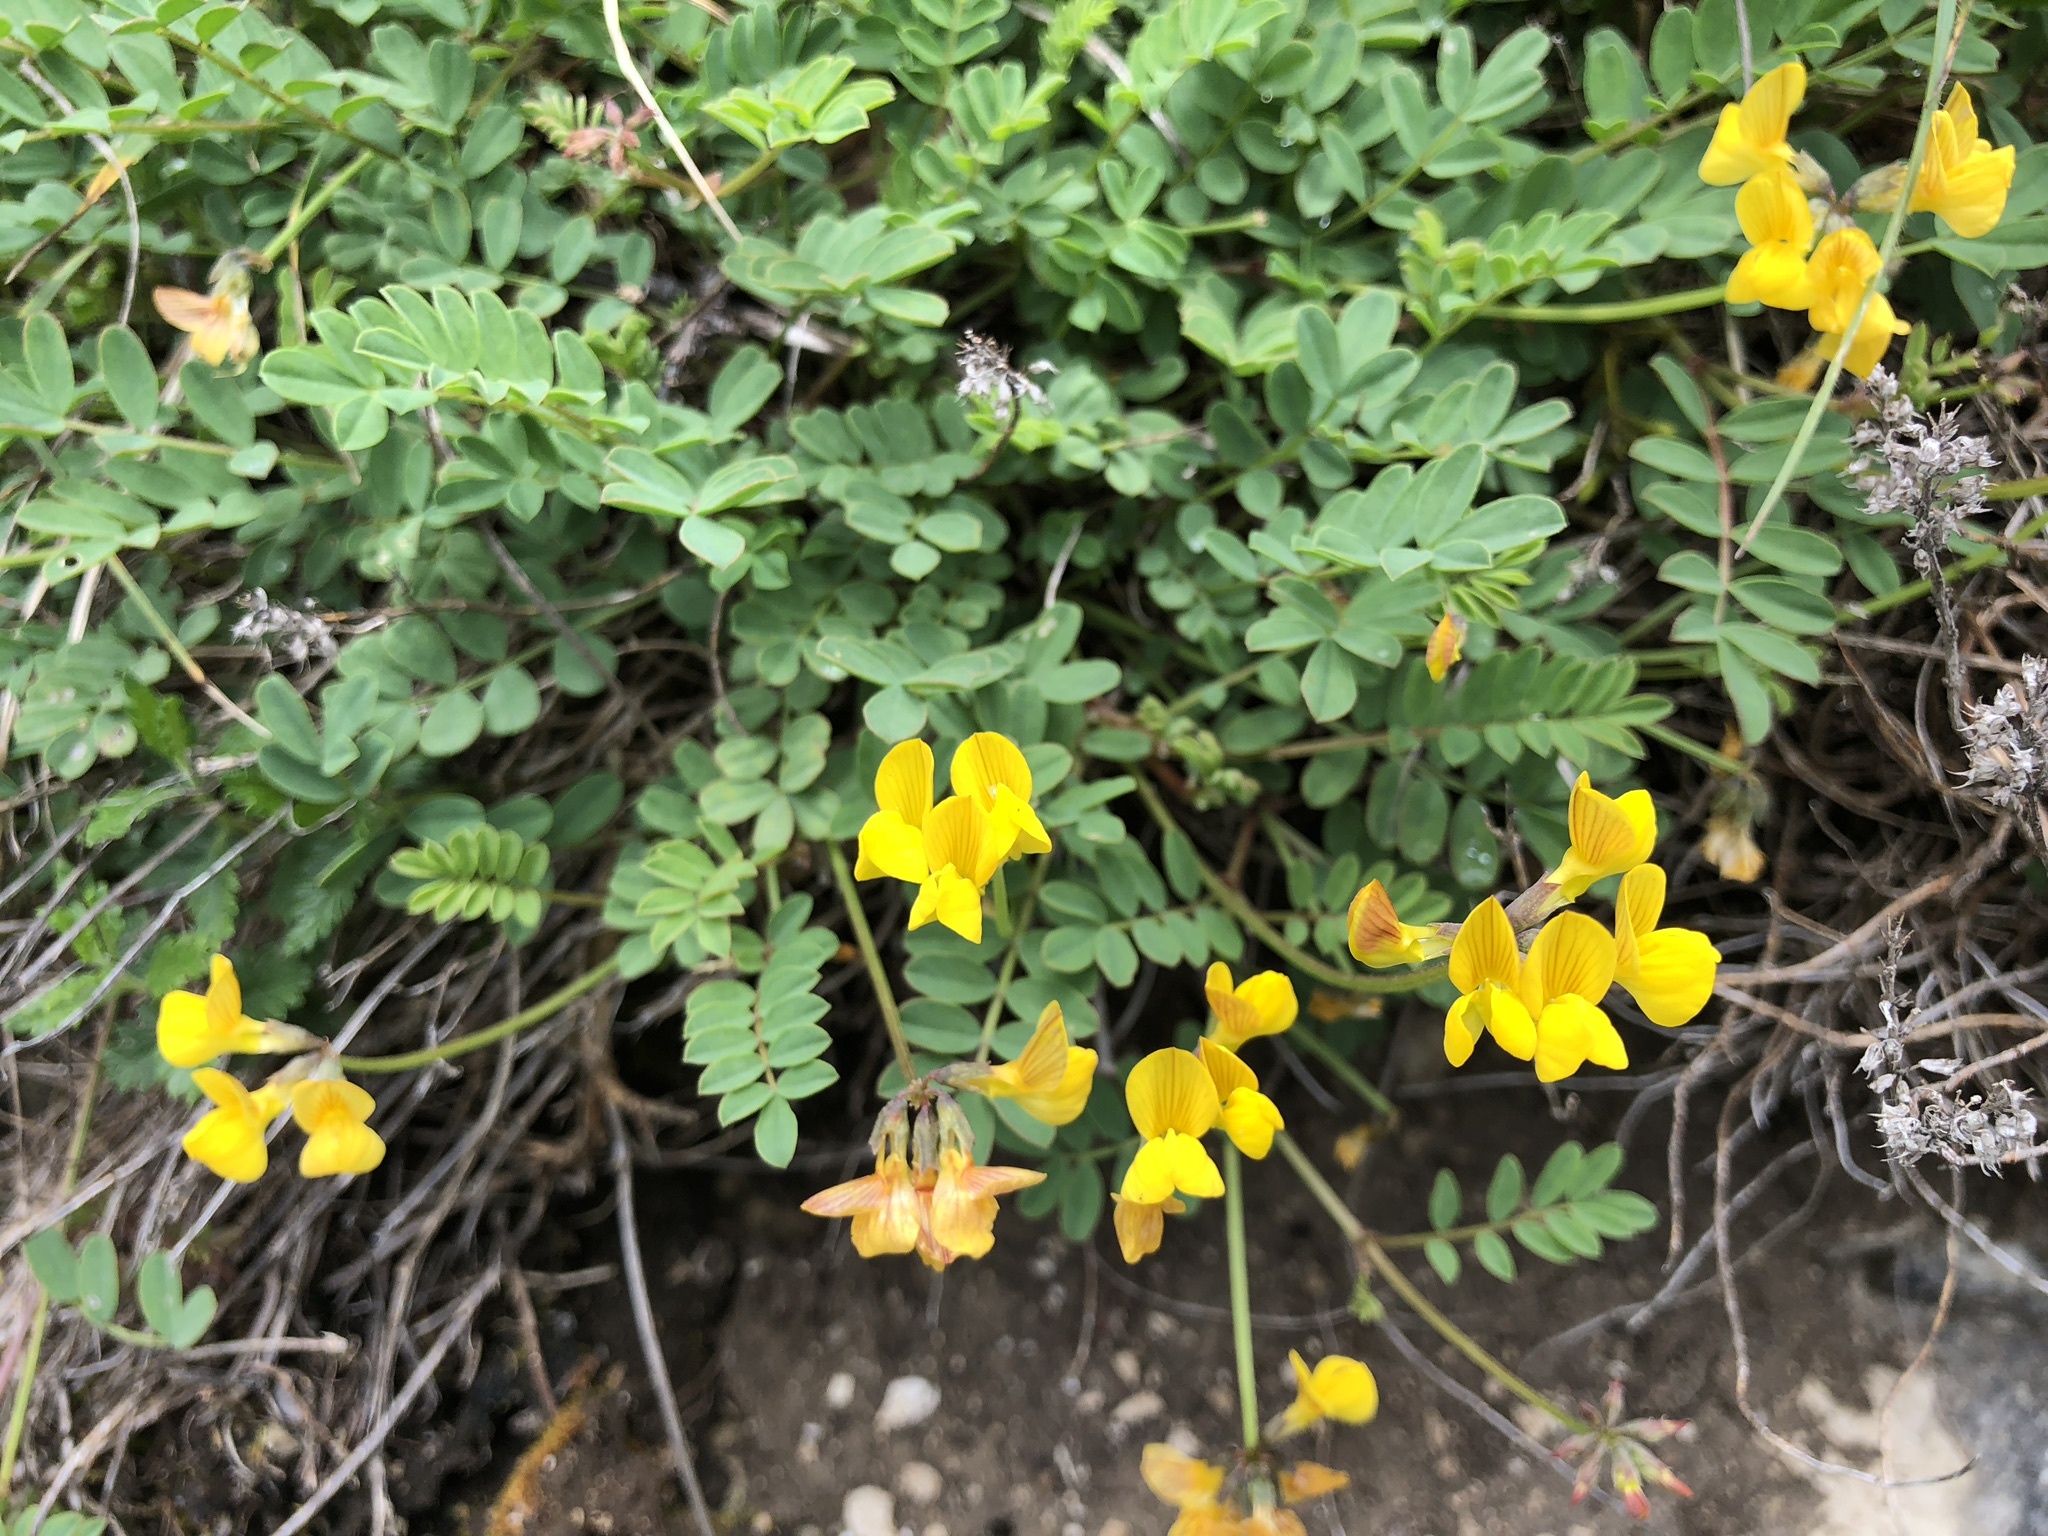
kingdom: Plantae
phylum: Tracheophyta
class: Magnoliopsida
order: Fabales
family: Fabaceae
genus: Hippocrepis
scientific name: Hippocrepis comosa
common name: Horseshoe vetch
